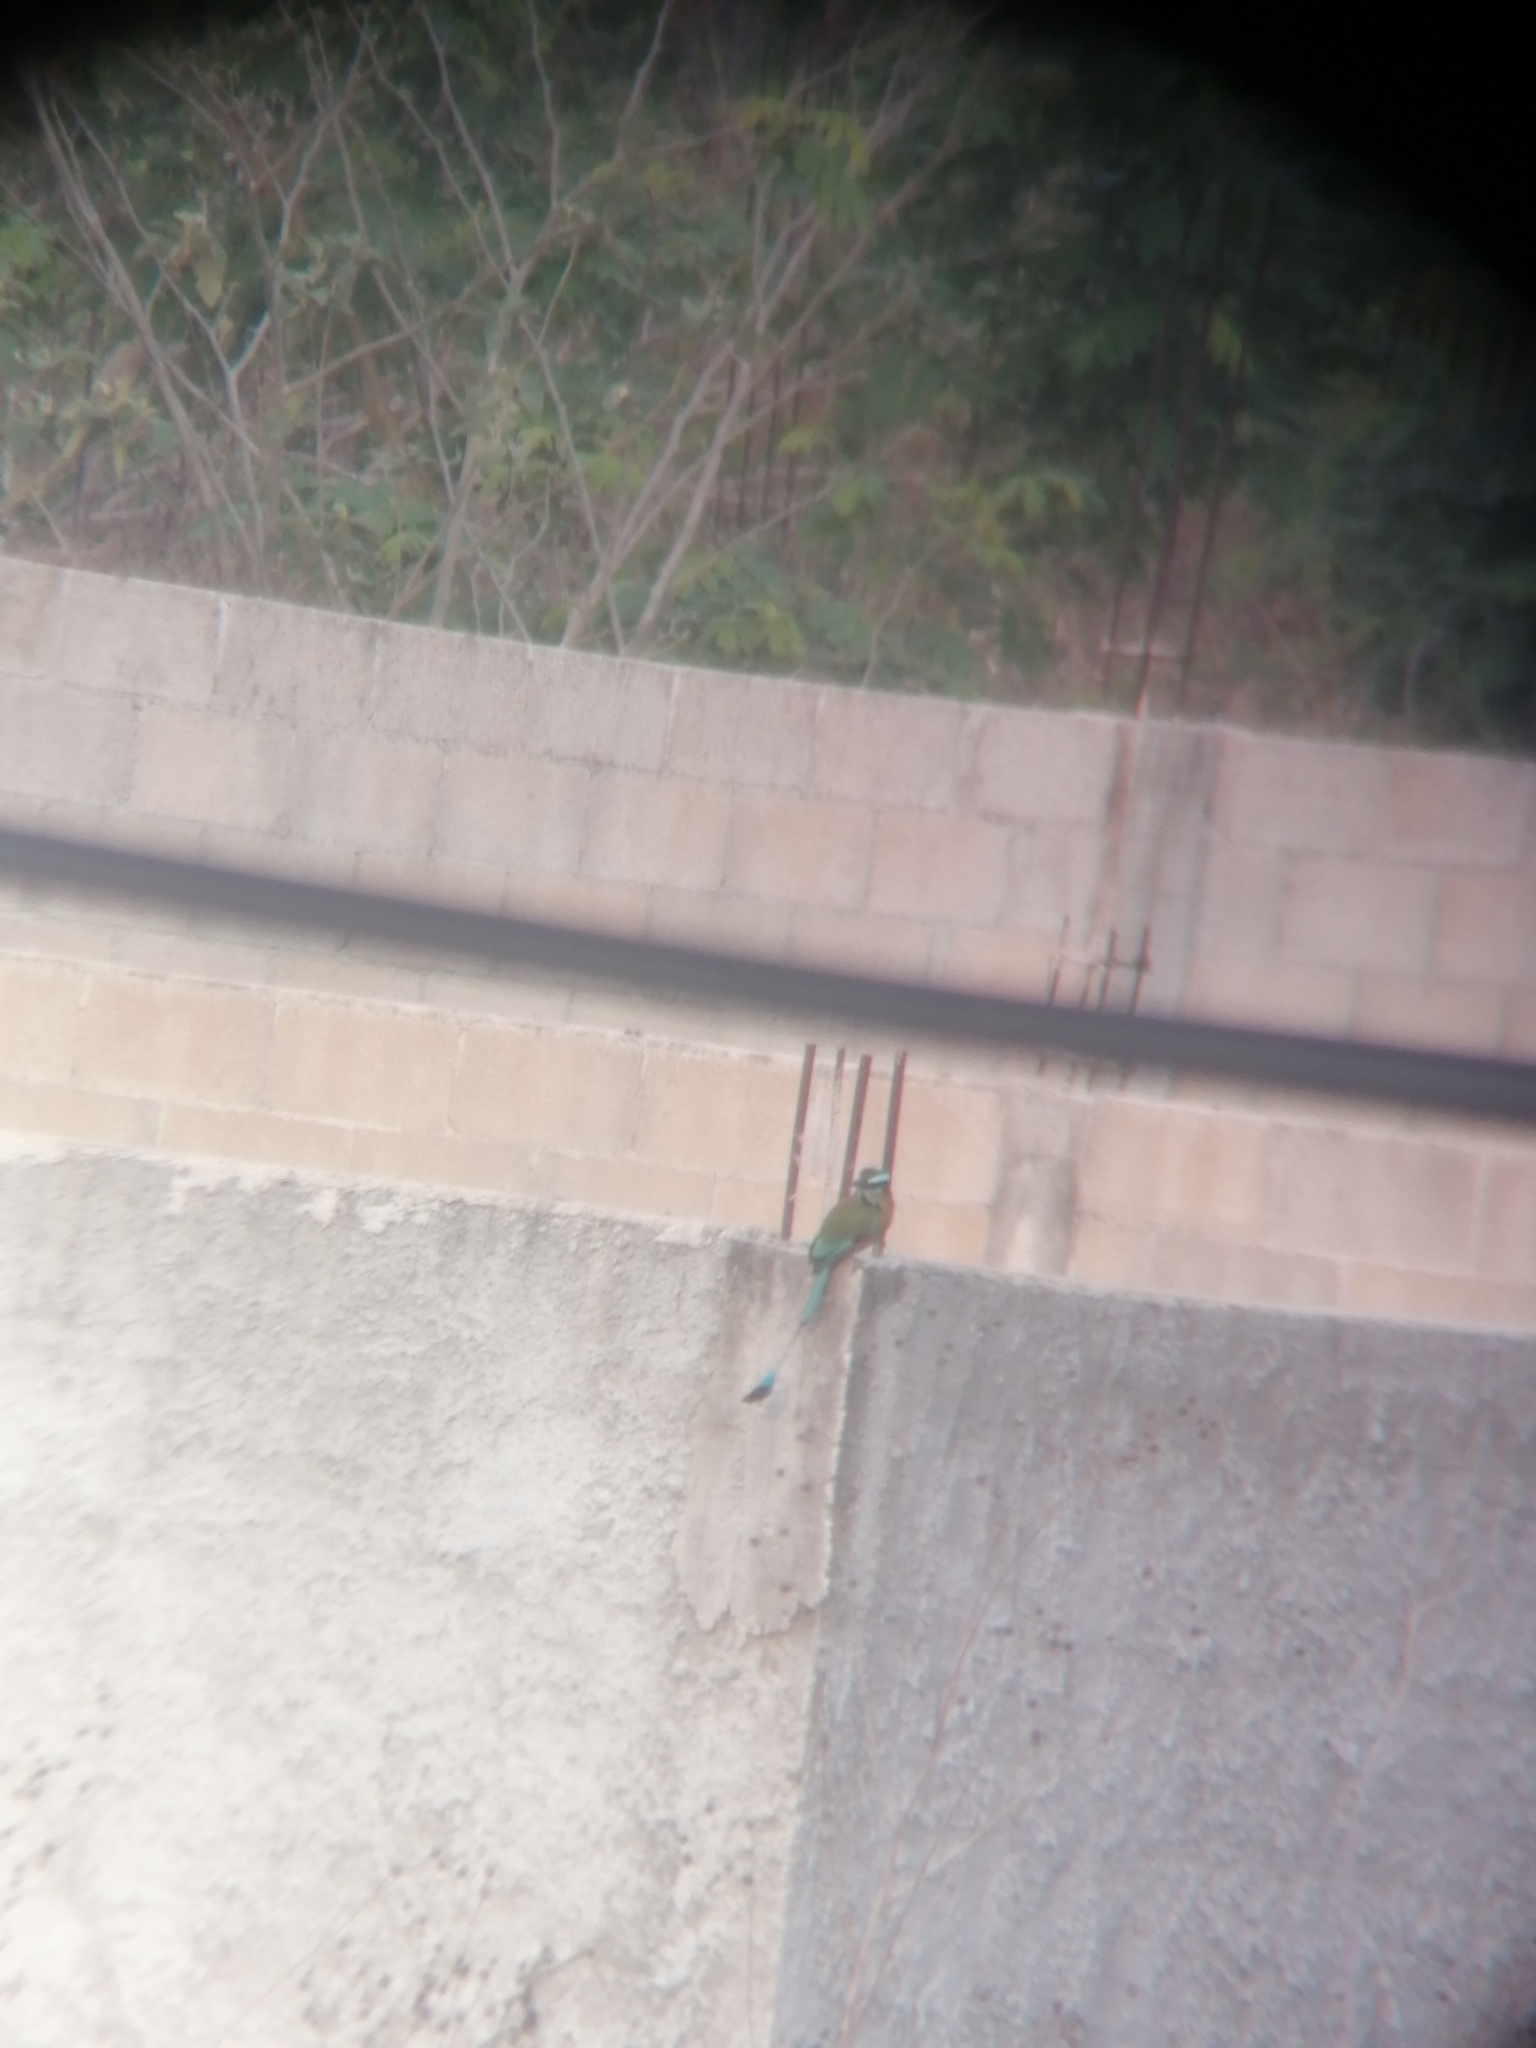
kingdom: Animalia
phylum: Chordata
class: Aves
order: Coraciiformes
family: Momotidae
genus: Eumomota
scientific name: Eumomota superciliosa
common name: Turquoise-browed motmot
